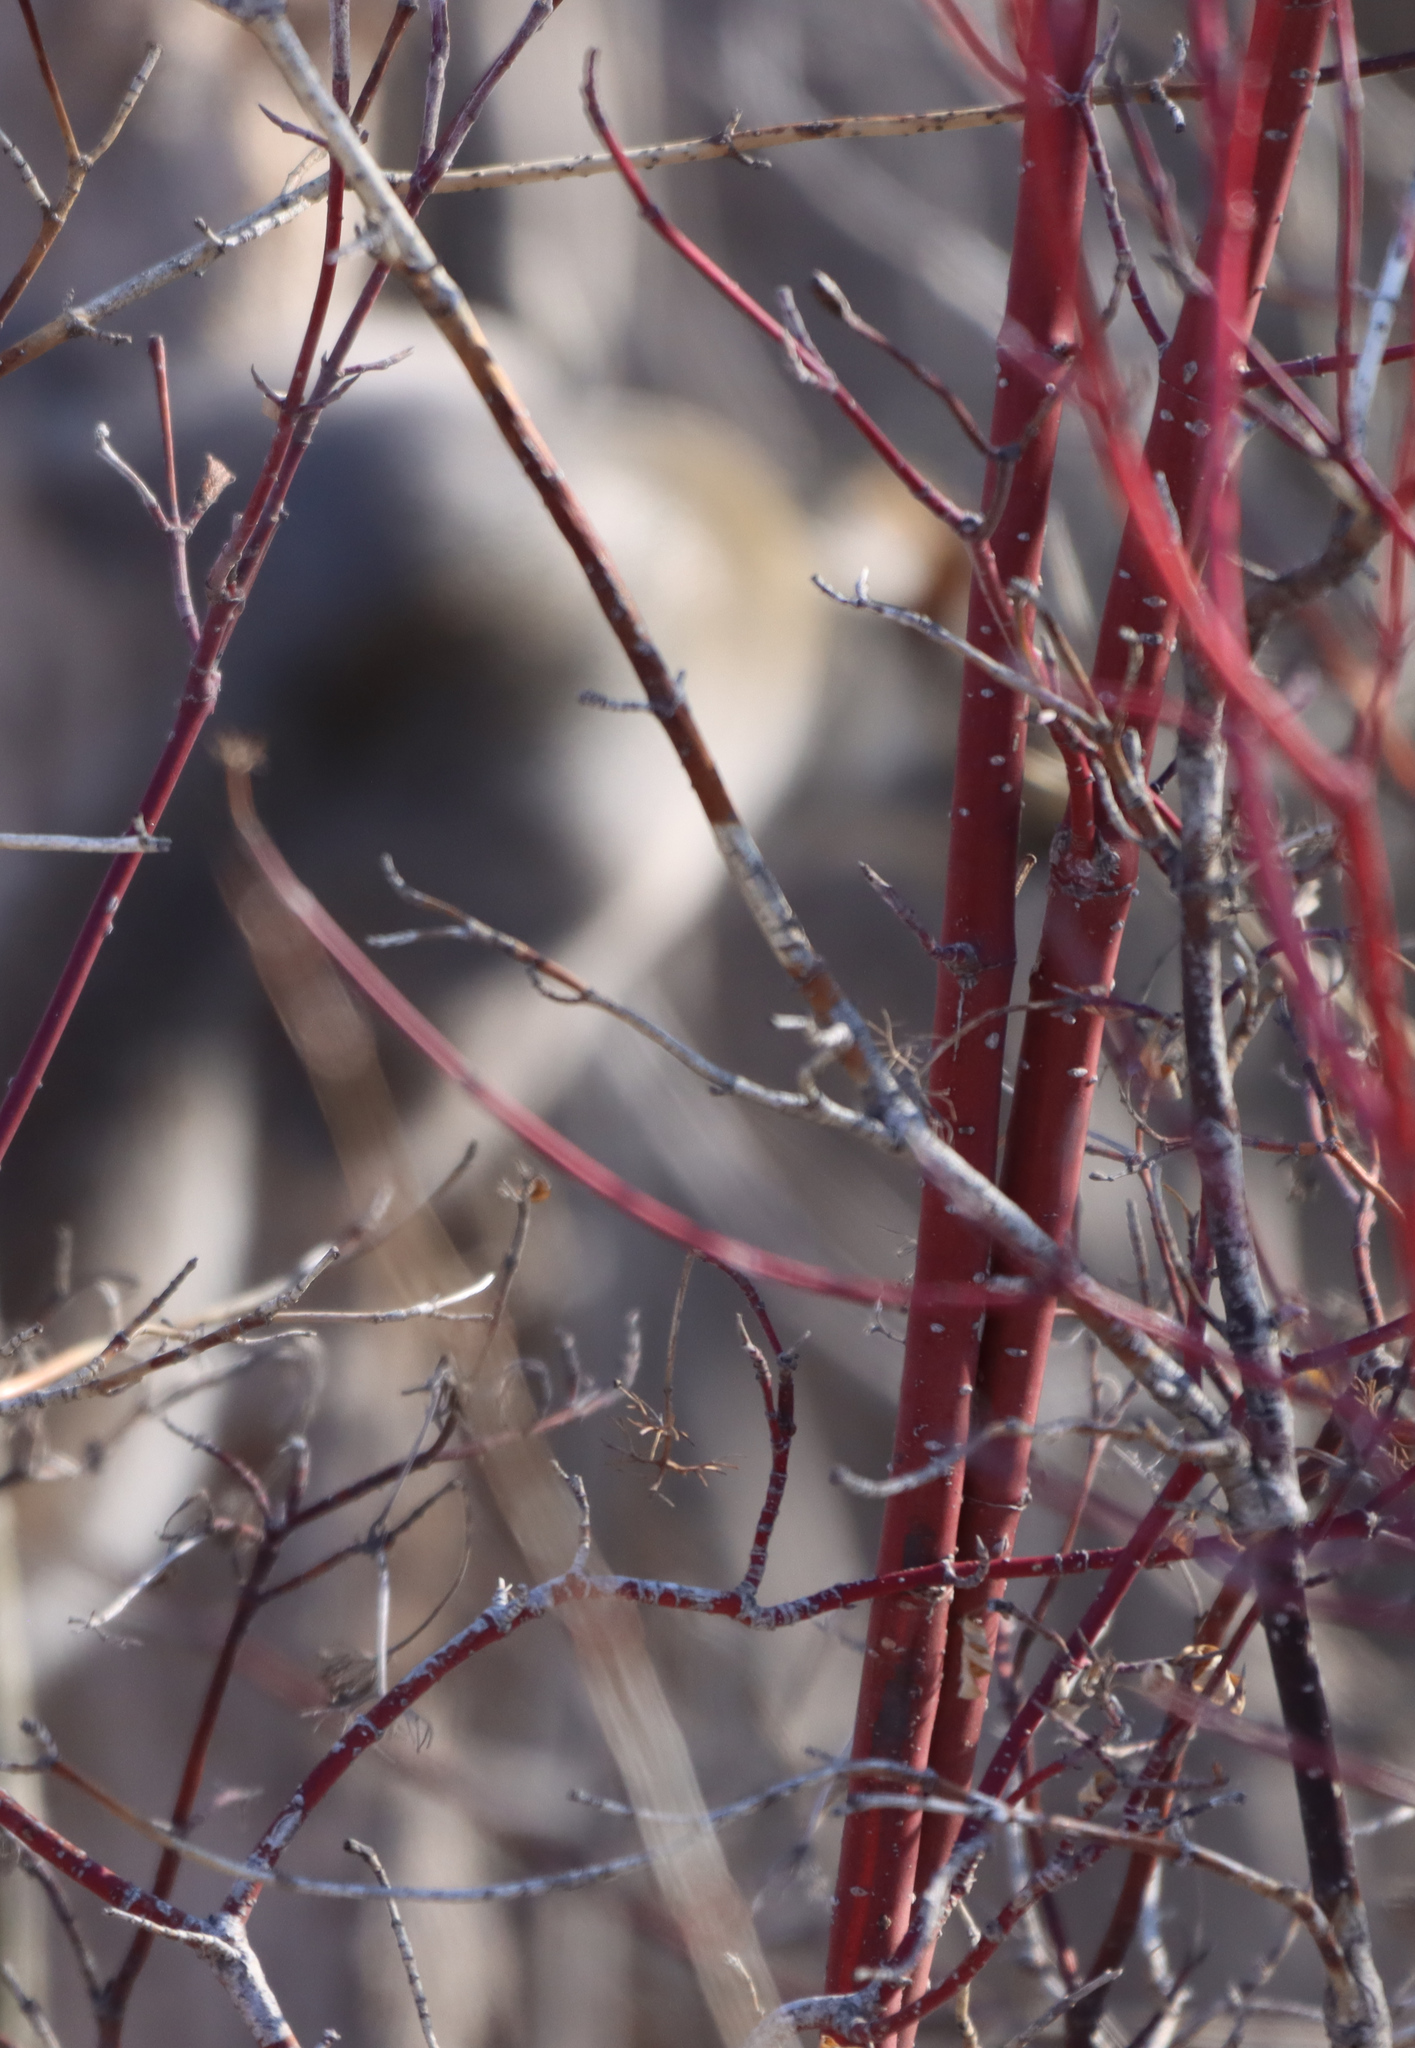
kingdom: Plantae
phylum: Tracheophyta
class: Magnoliopsida
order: Cornales
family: Cornaceae
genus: Cornus
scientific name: Cornus sericea
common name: Red-osier dogwood
